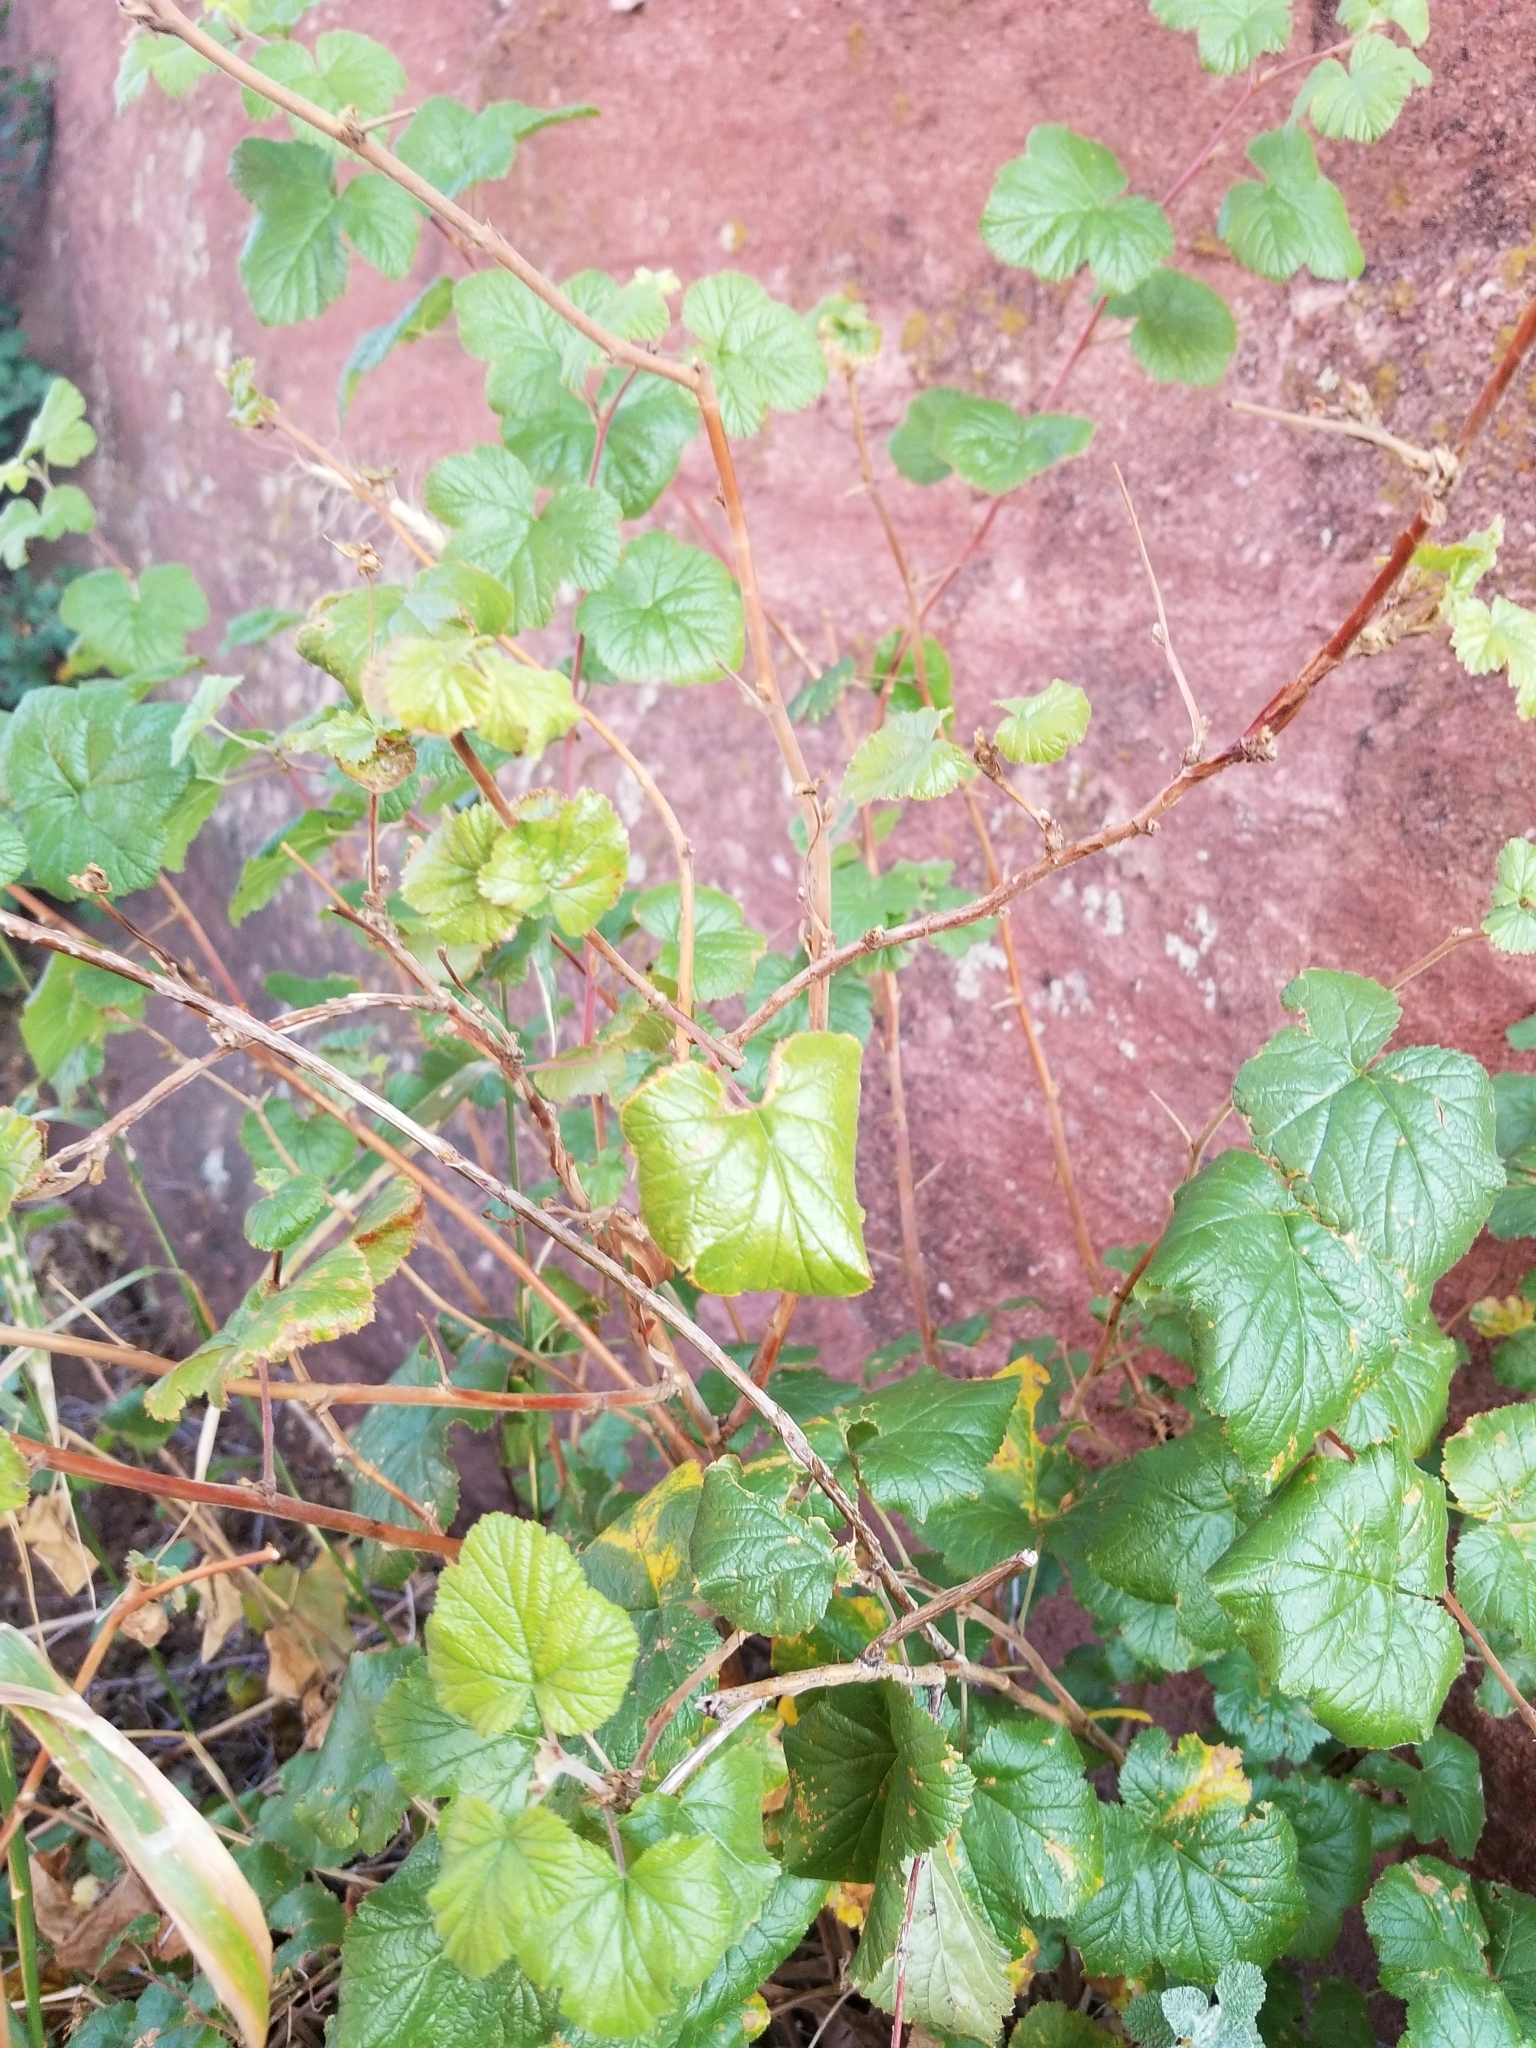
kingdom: Plantae
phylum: Tracheophyta
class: Magnoliopsida
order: Rosales
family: Rosaceae
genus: Rubus
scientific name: Rubus deliciosus
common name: Rocky mountain raspberry
